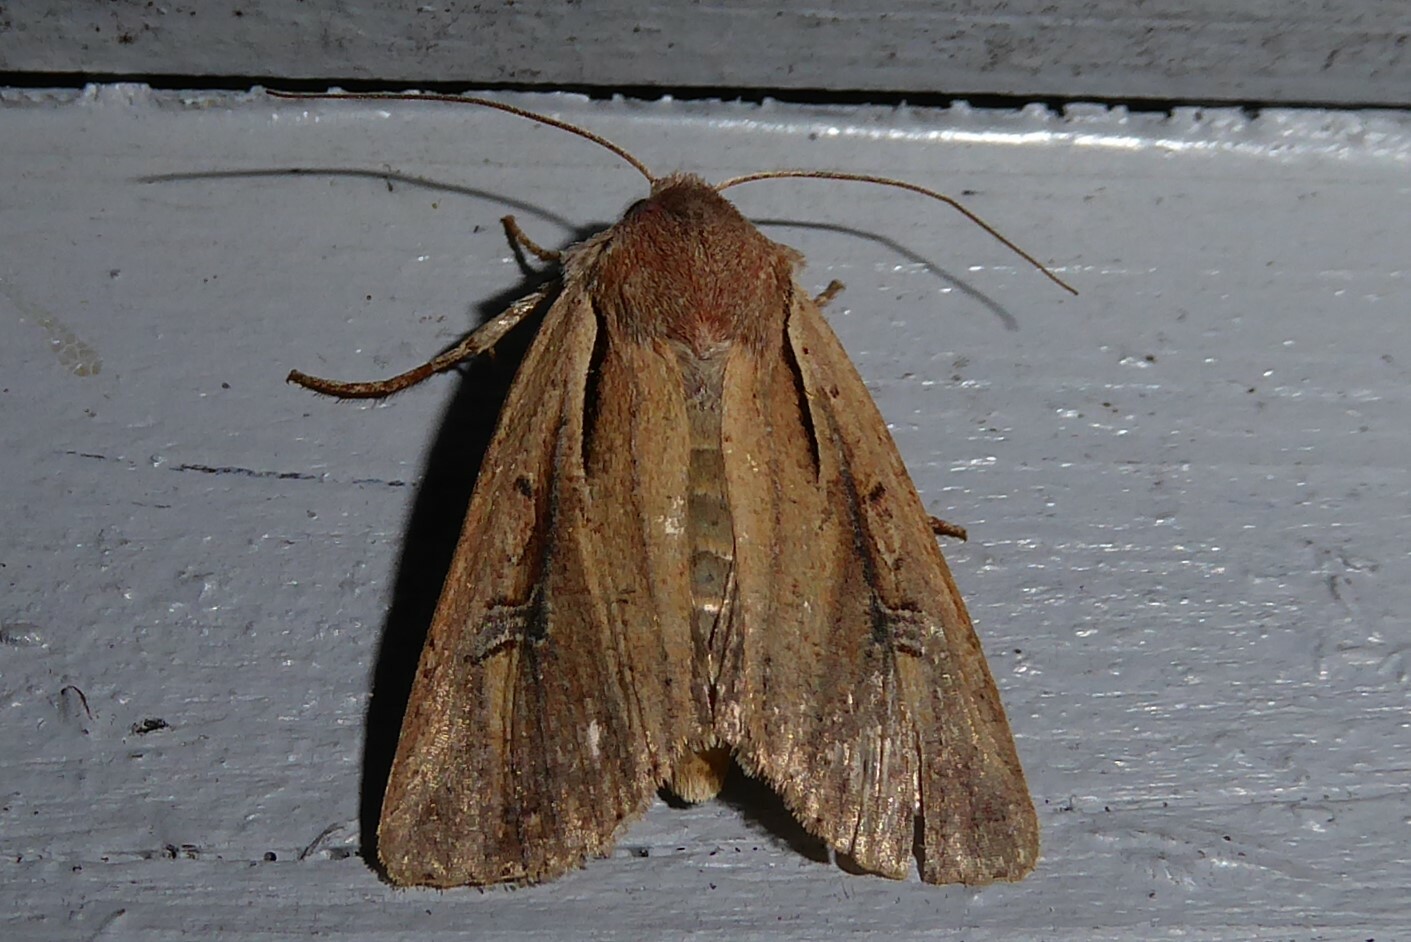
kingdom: Animalia
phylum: Arthropoda
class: Insecta
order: Lepidoptera
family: Noctuidae
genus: Ichneutica
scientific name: Ichneutica atristriga
